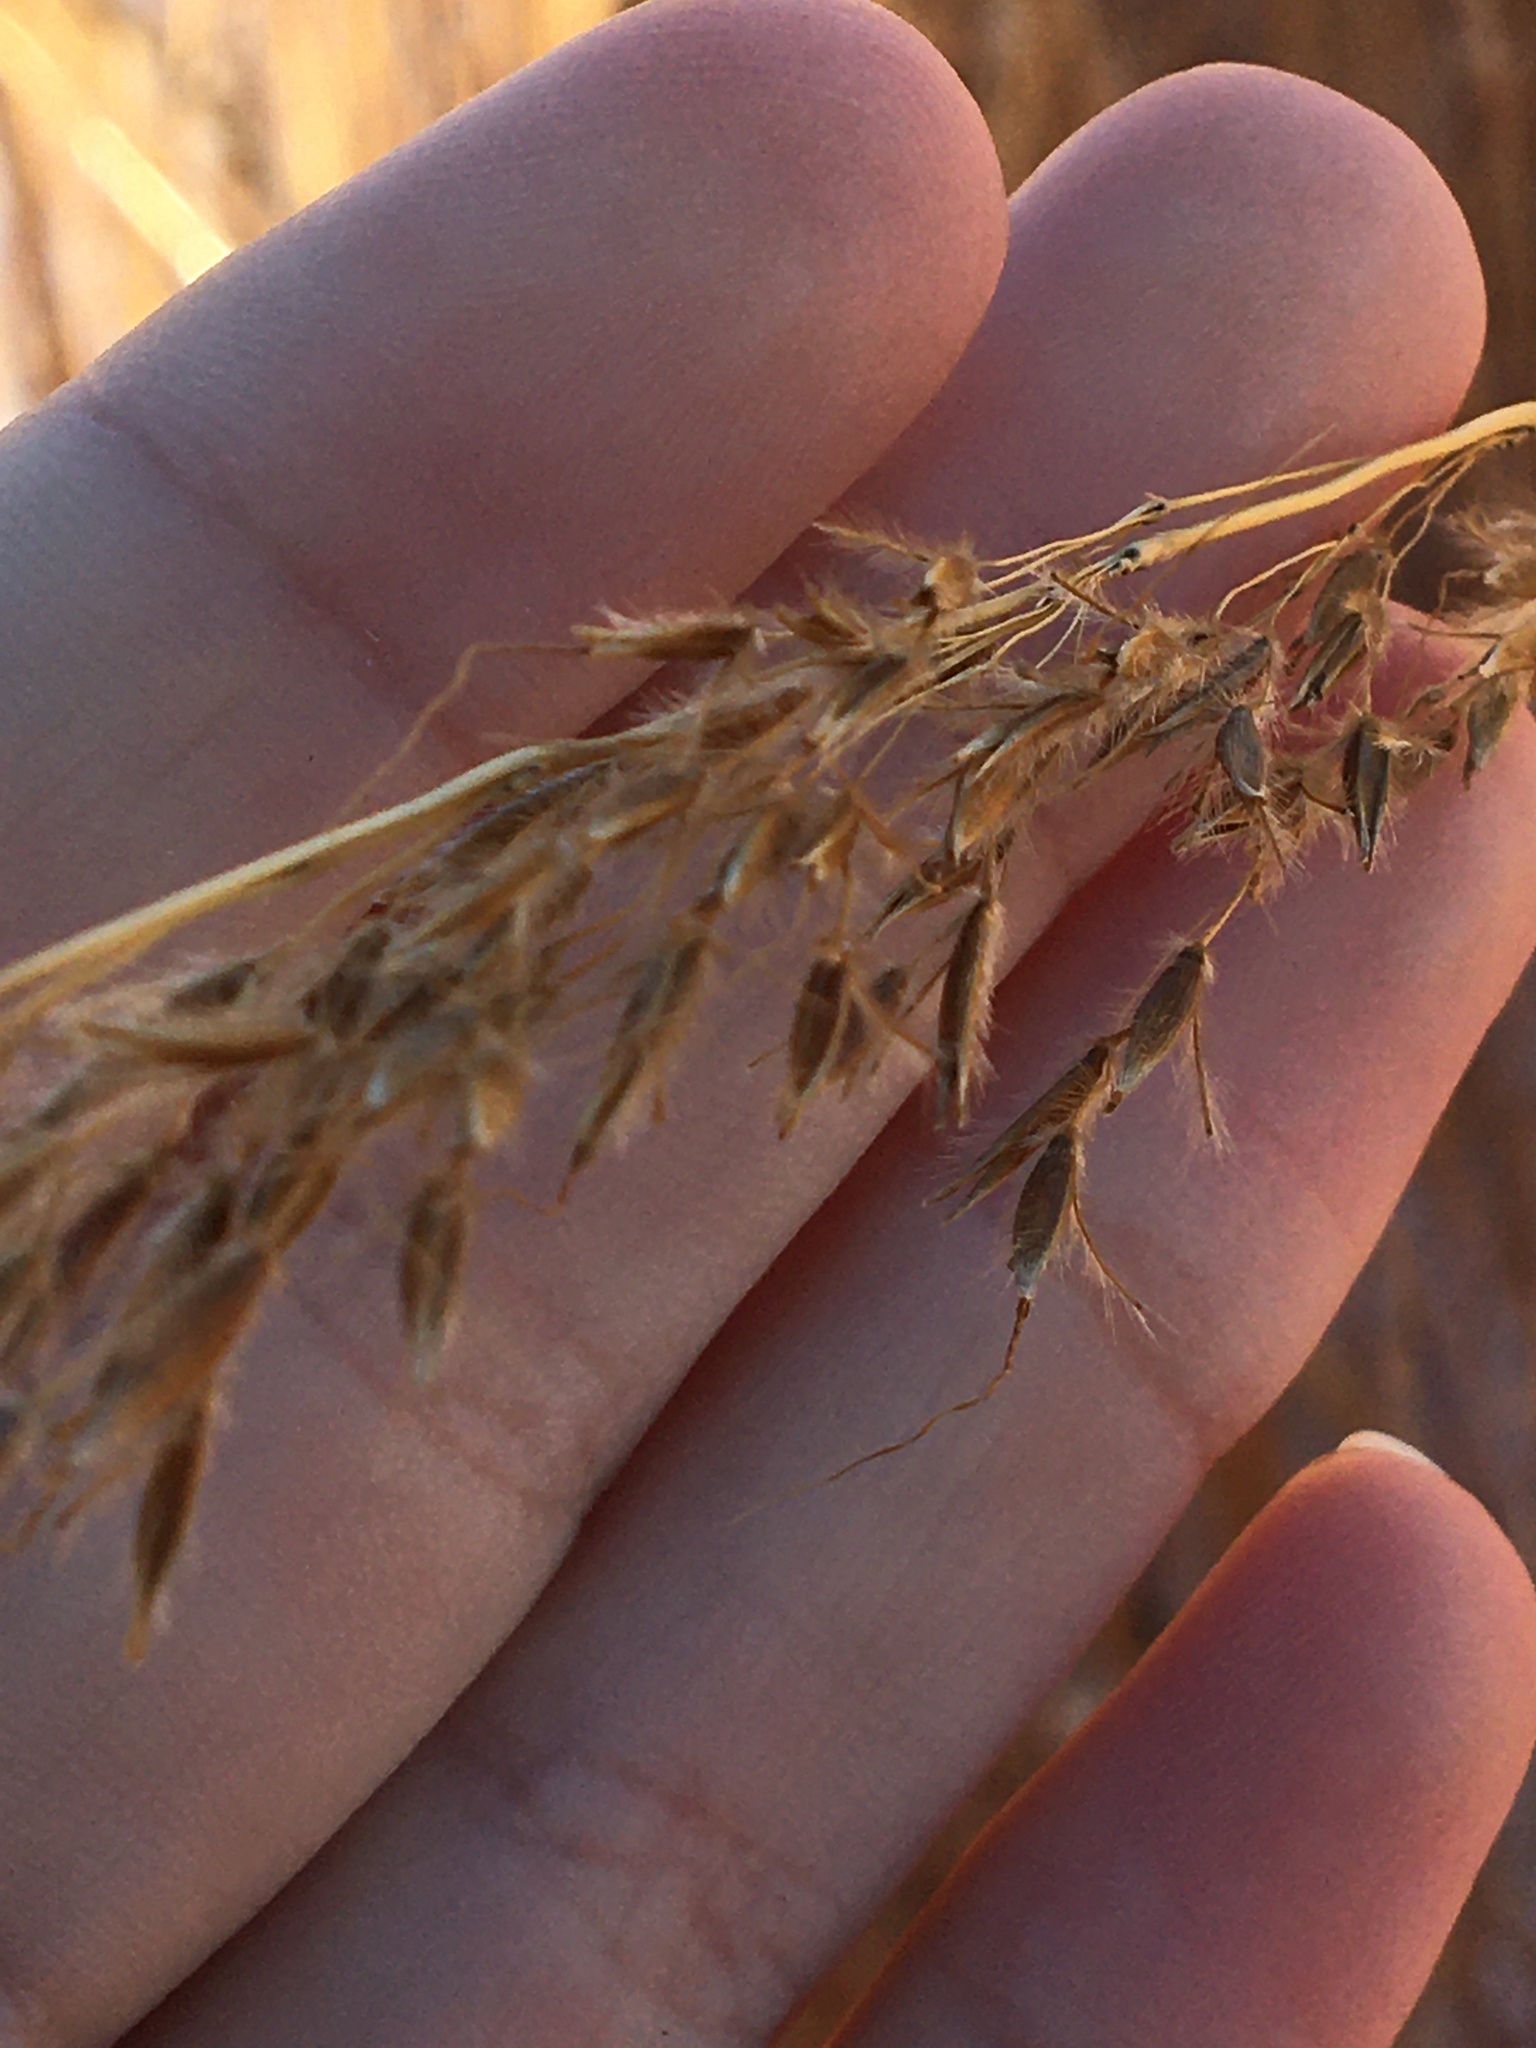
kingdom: Plantae
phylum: Tracheophyta
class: Liliopsida
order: Poales
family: Poaceae
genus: Sorghastrum
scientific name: Sorghastrum nutans
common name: Indian grass
